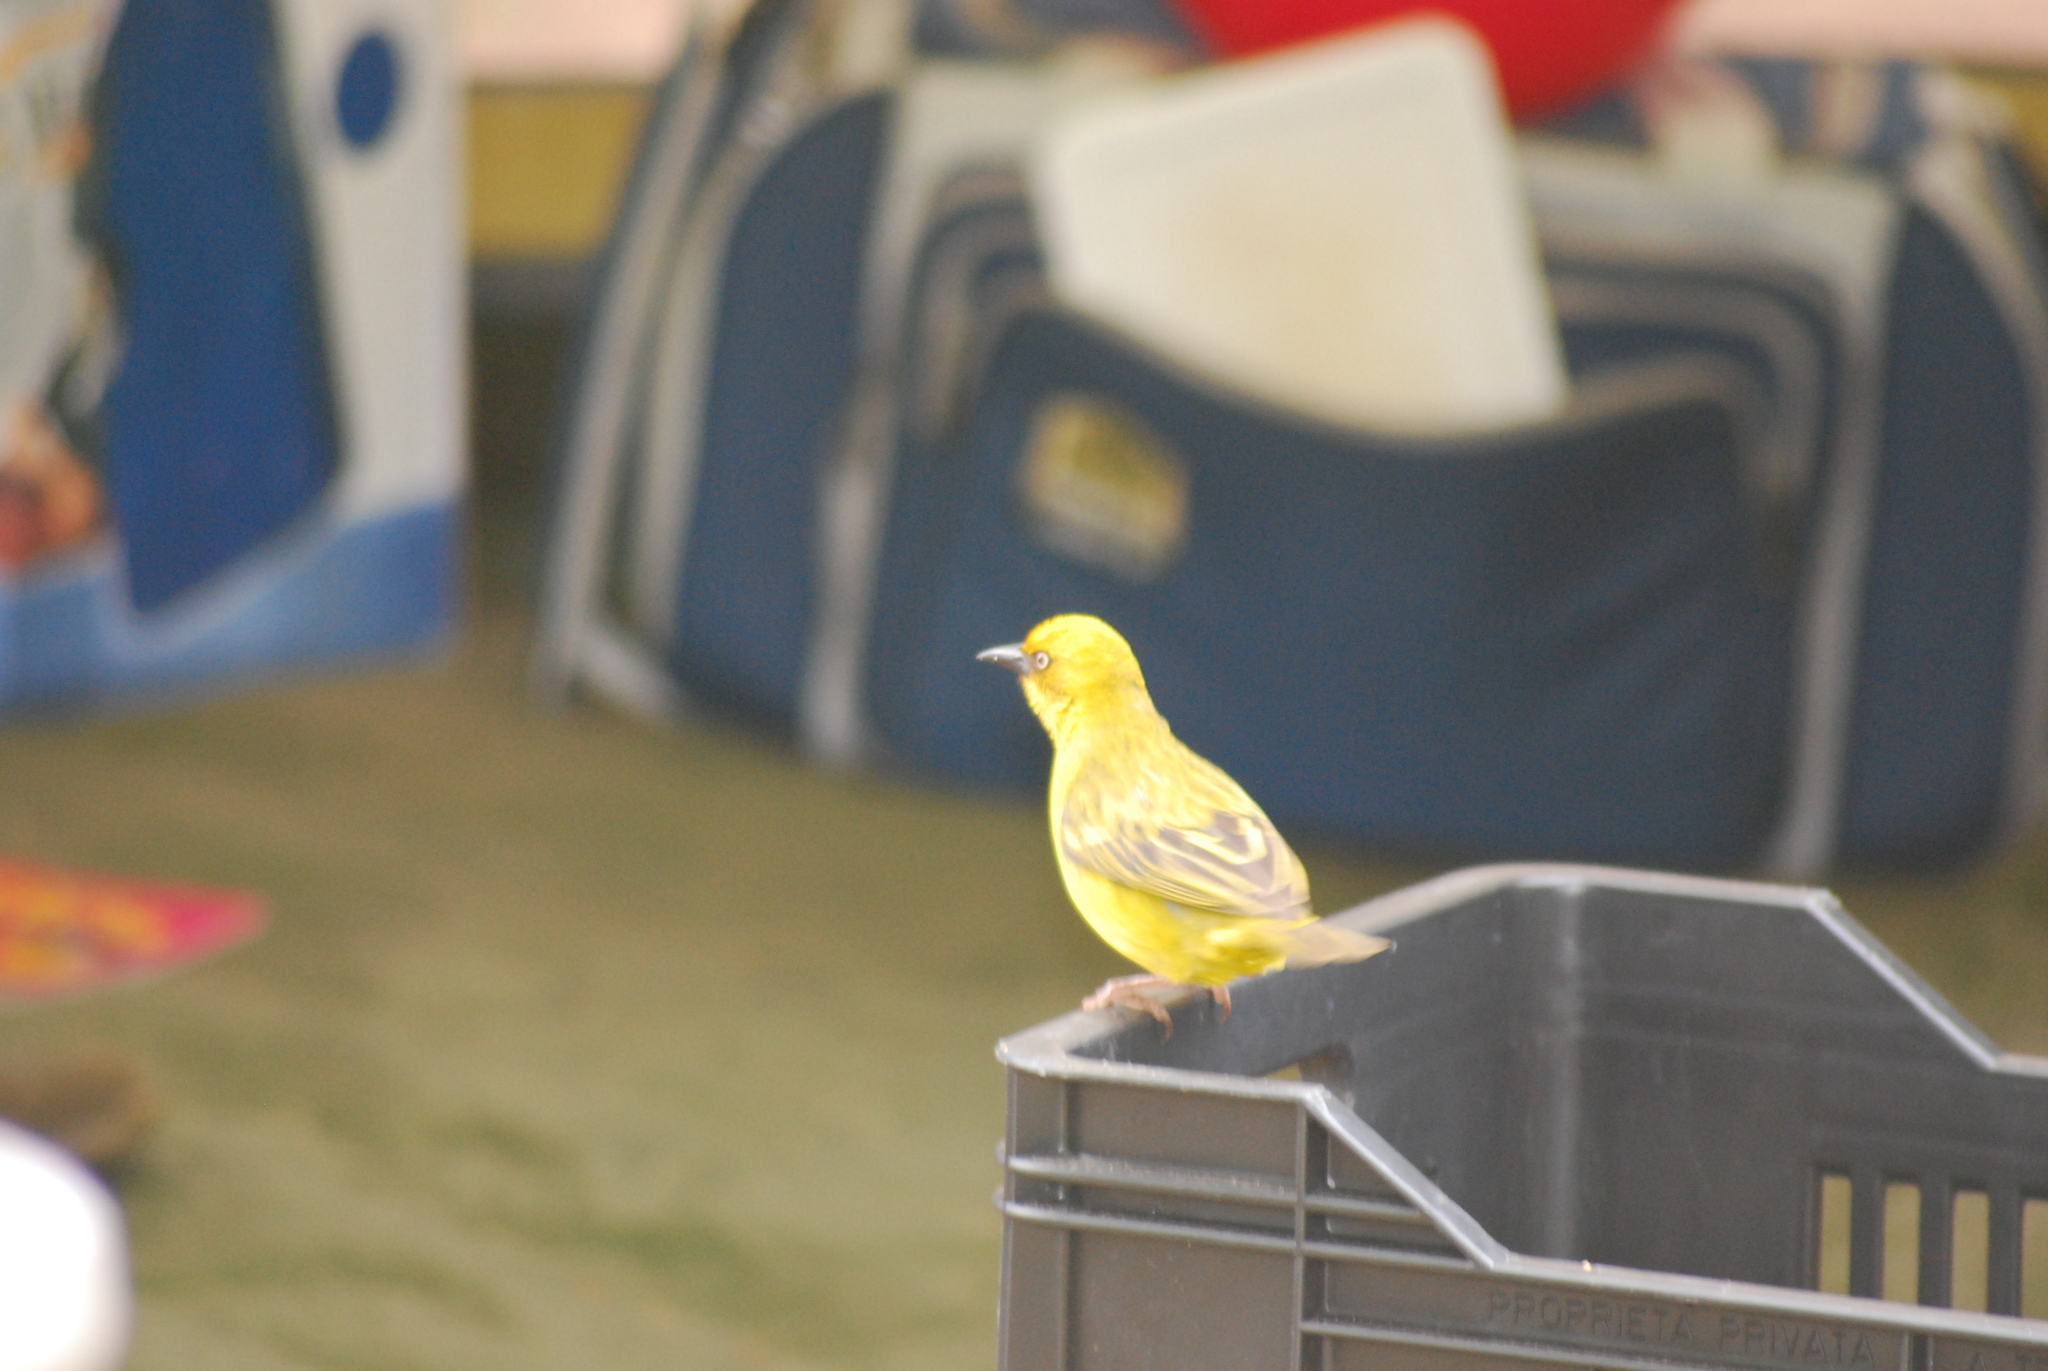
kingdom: Animalia
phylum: Chordata
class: Aves
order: Passeriformes
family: Ploceidae
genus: Ploceus
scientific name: Ploceus capensis
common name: Cape weaver
